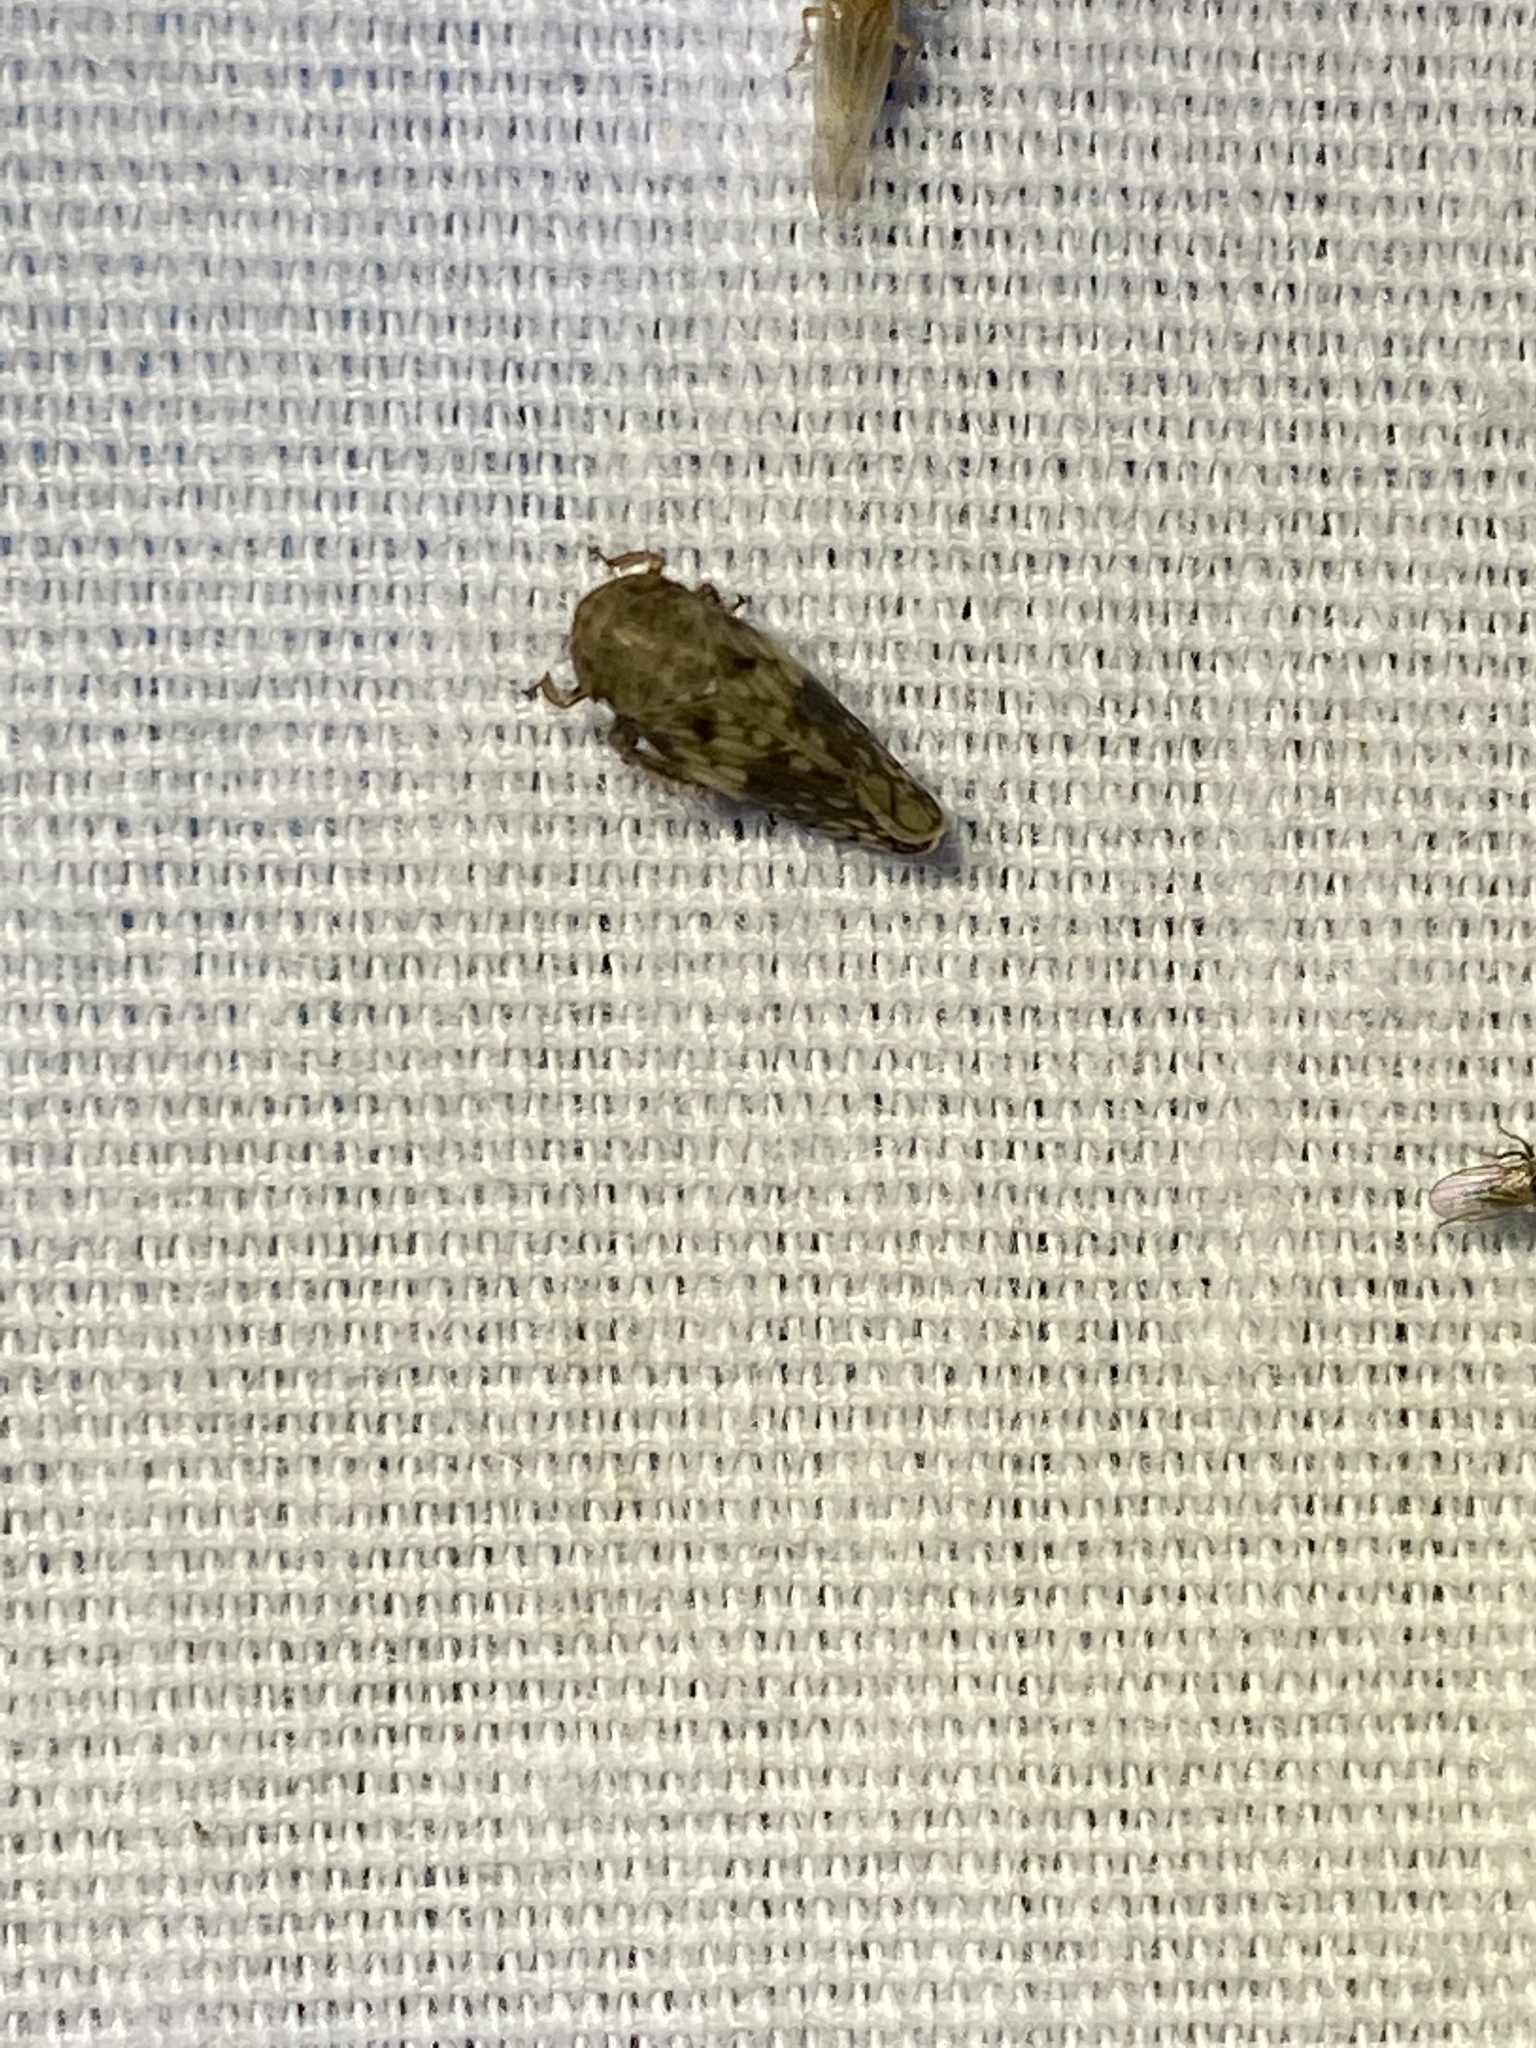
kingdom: Animalia
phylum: Arthropoda
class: Insecta
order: Hemiptera
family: Cicadellidae
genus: Menosoma
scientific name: Menosoma cinctum
